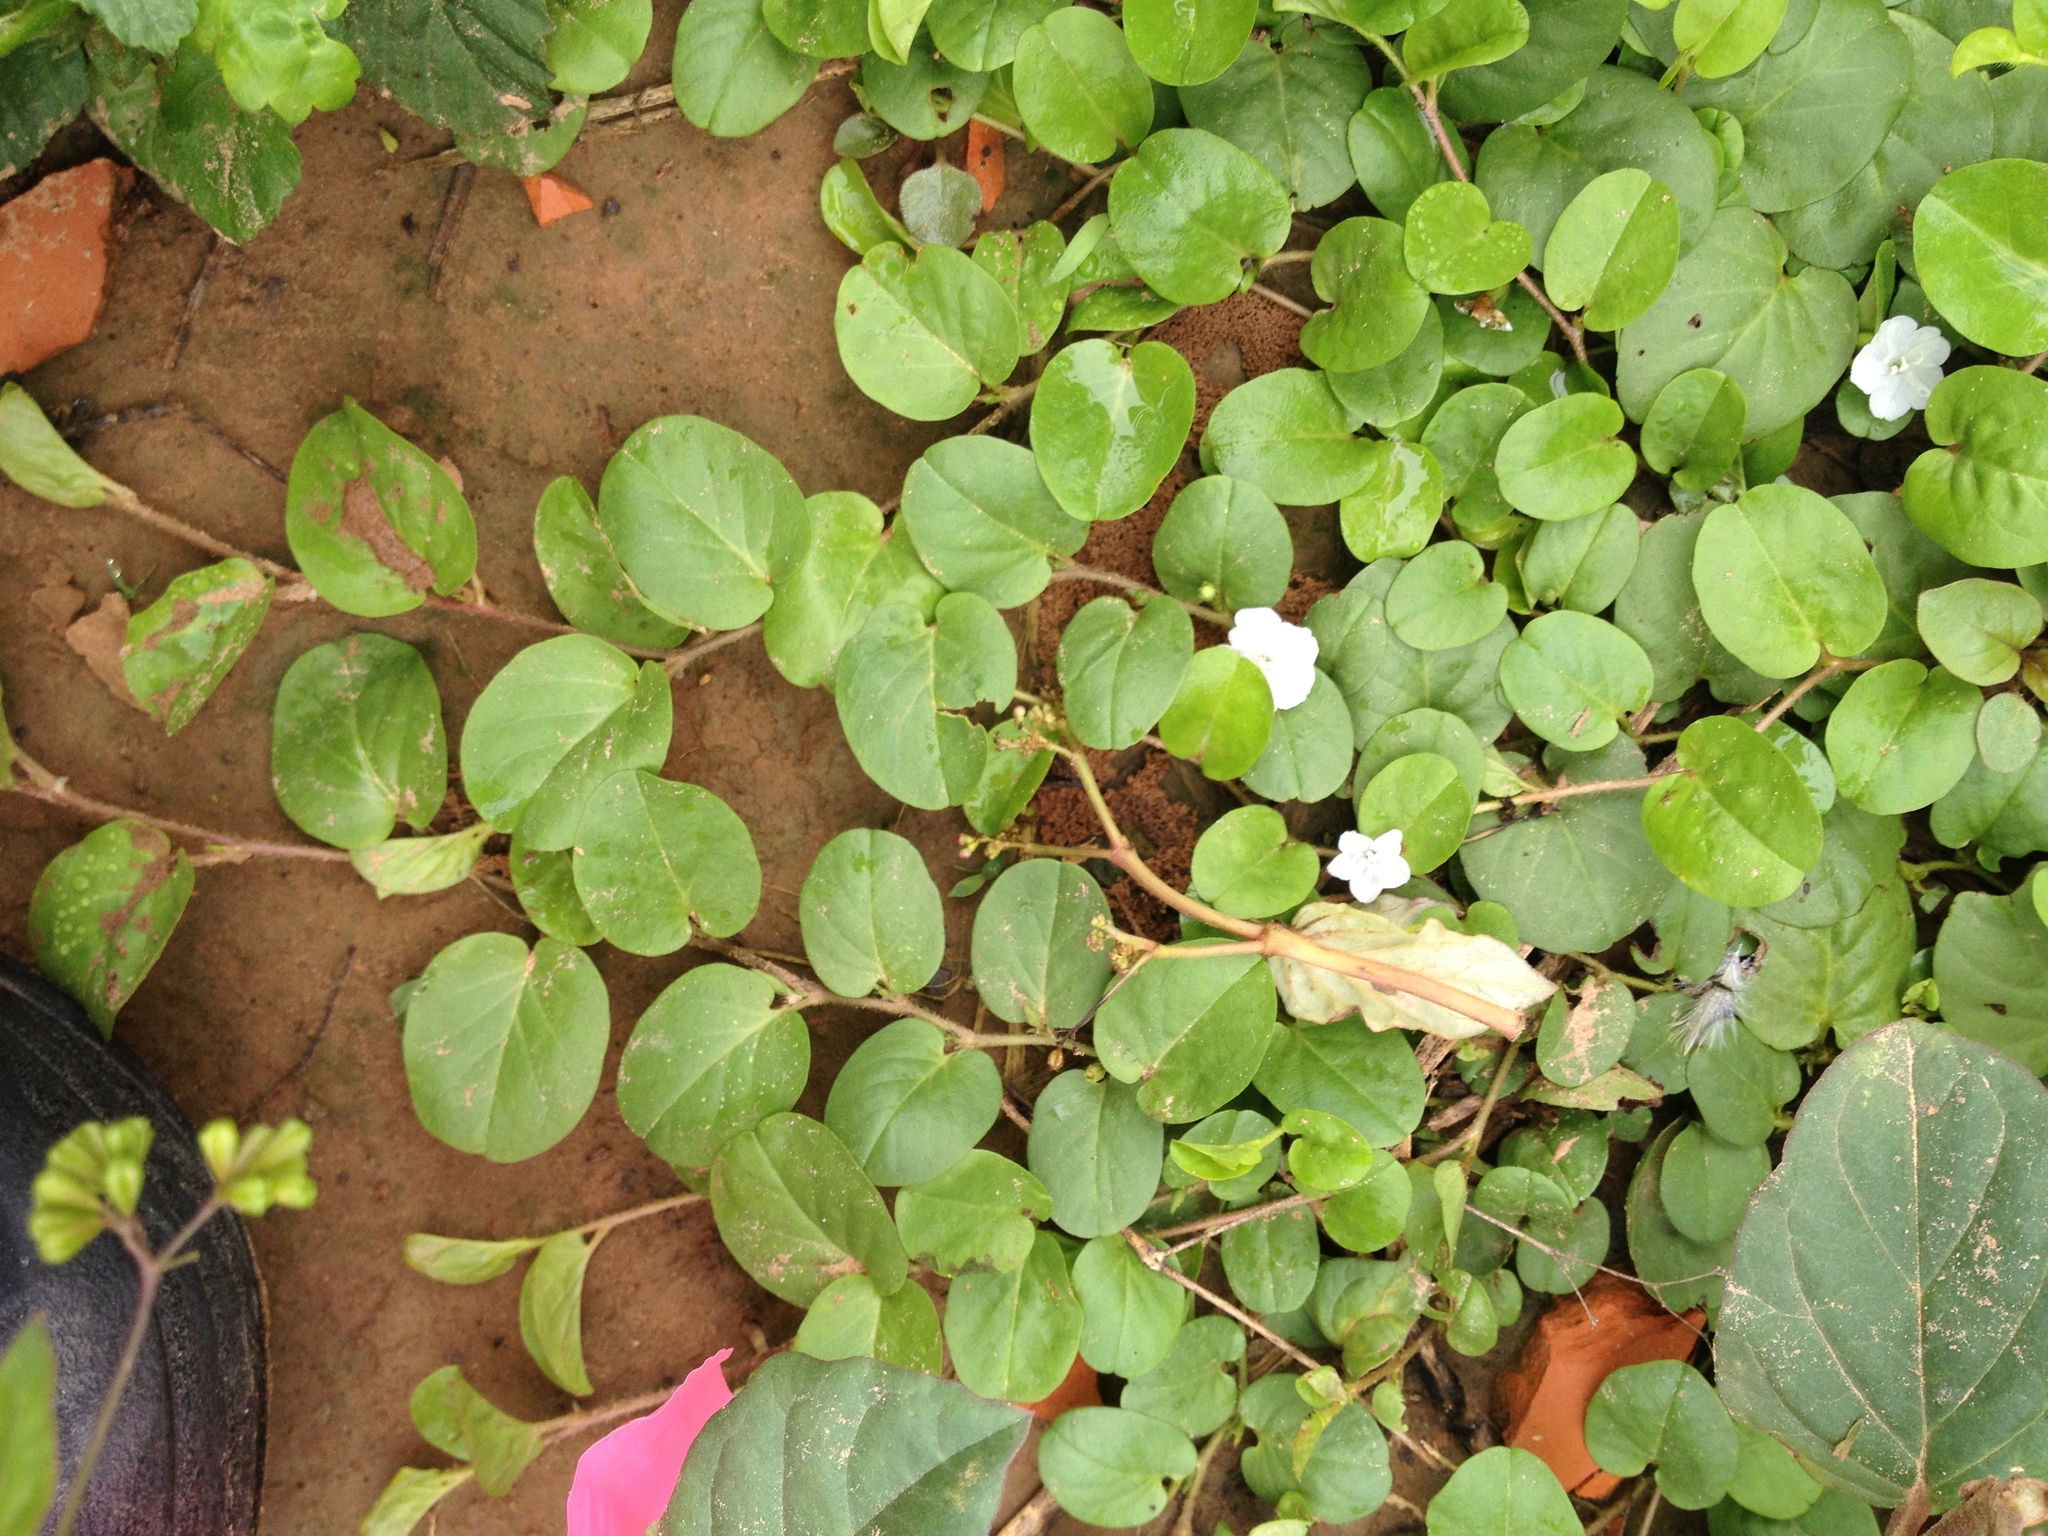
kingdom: Plantae
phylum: Tracheophyta
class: Magnoliopsida
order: Solanales
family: Convolvulaceae
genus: Evolvulus
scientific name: Evolvulus nummularius
